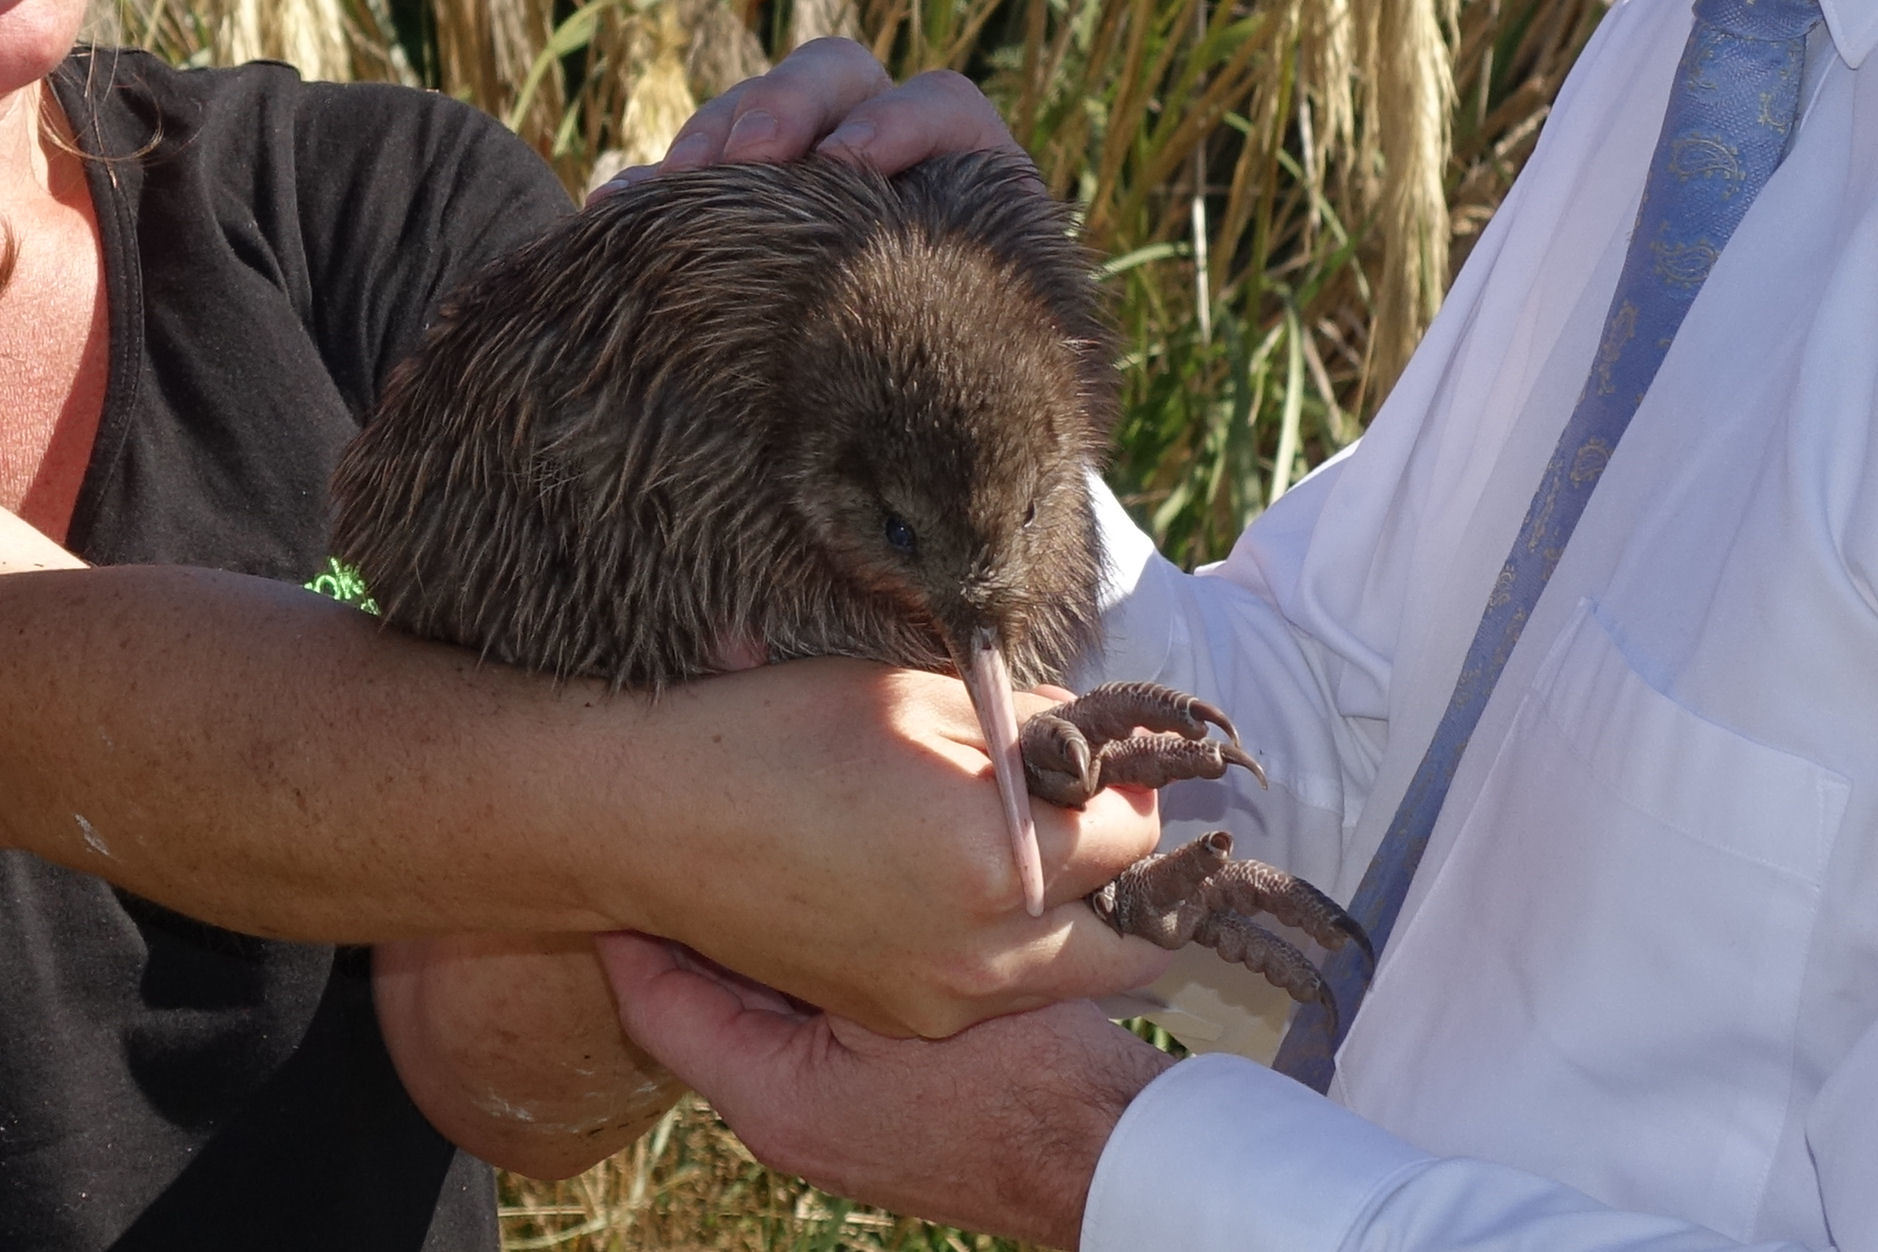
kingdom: Animalia
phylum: Chordata
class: Aves
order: Apterygiformes
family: Apterygidae
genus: Apteryx
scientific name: Apteryx australis
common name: Southern brown kiwi
